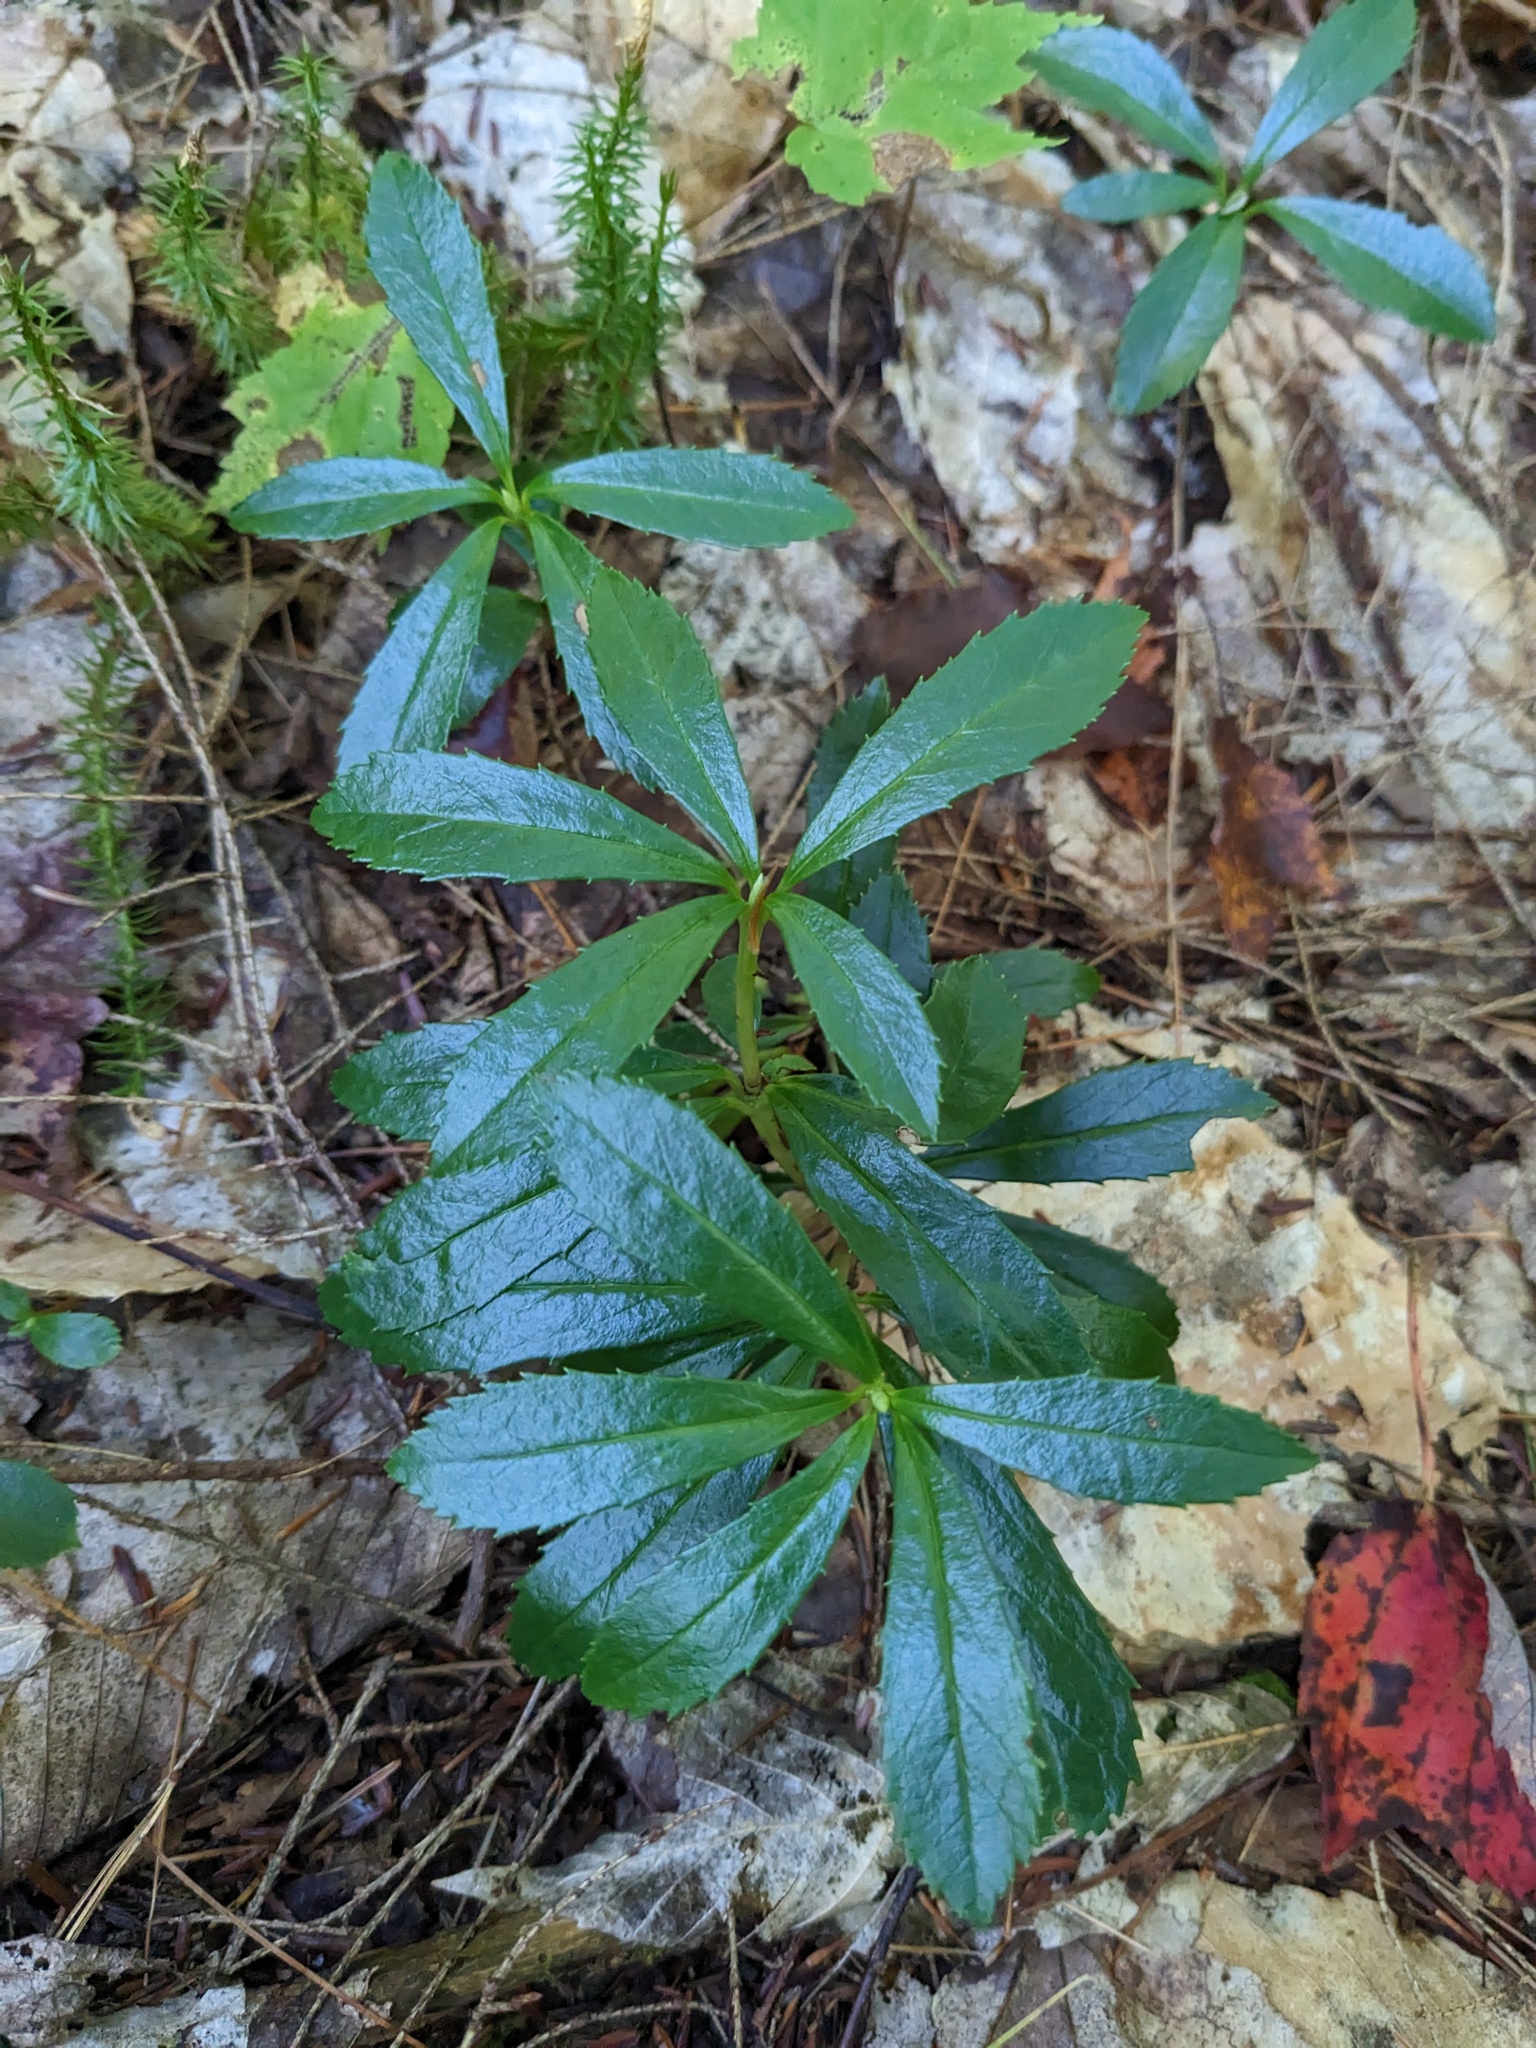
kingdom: Plantae
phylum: Tracheophyta
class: Magnoliopsida
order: Ericales
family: Ericaceae
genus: Chimaphila
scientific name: Chimaphila umbellata
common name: Pipsissewa
